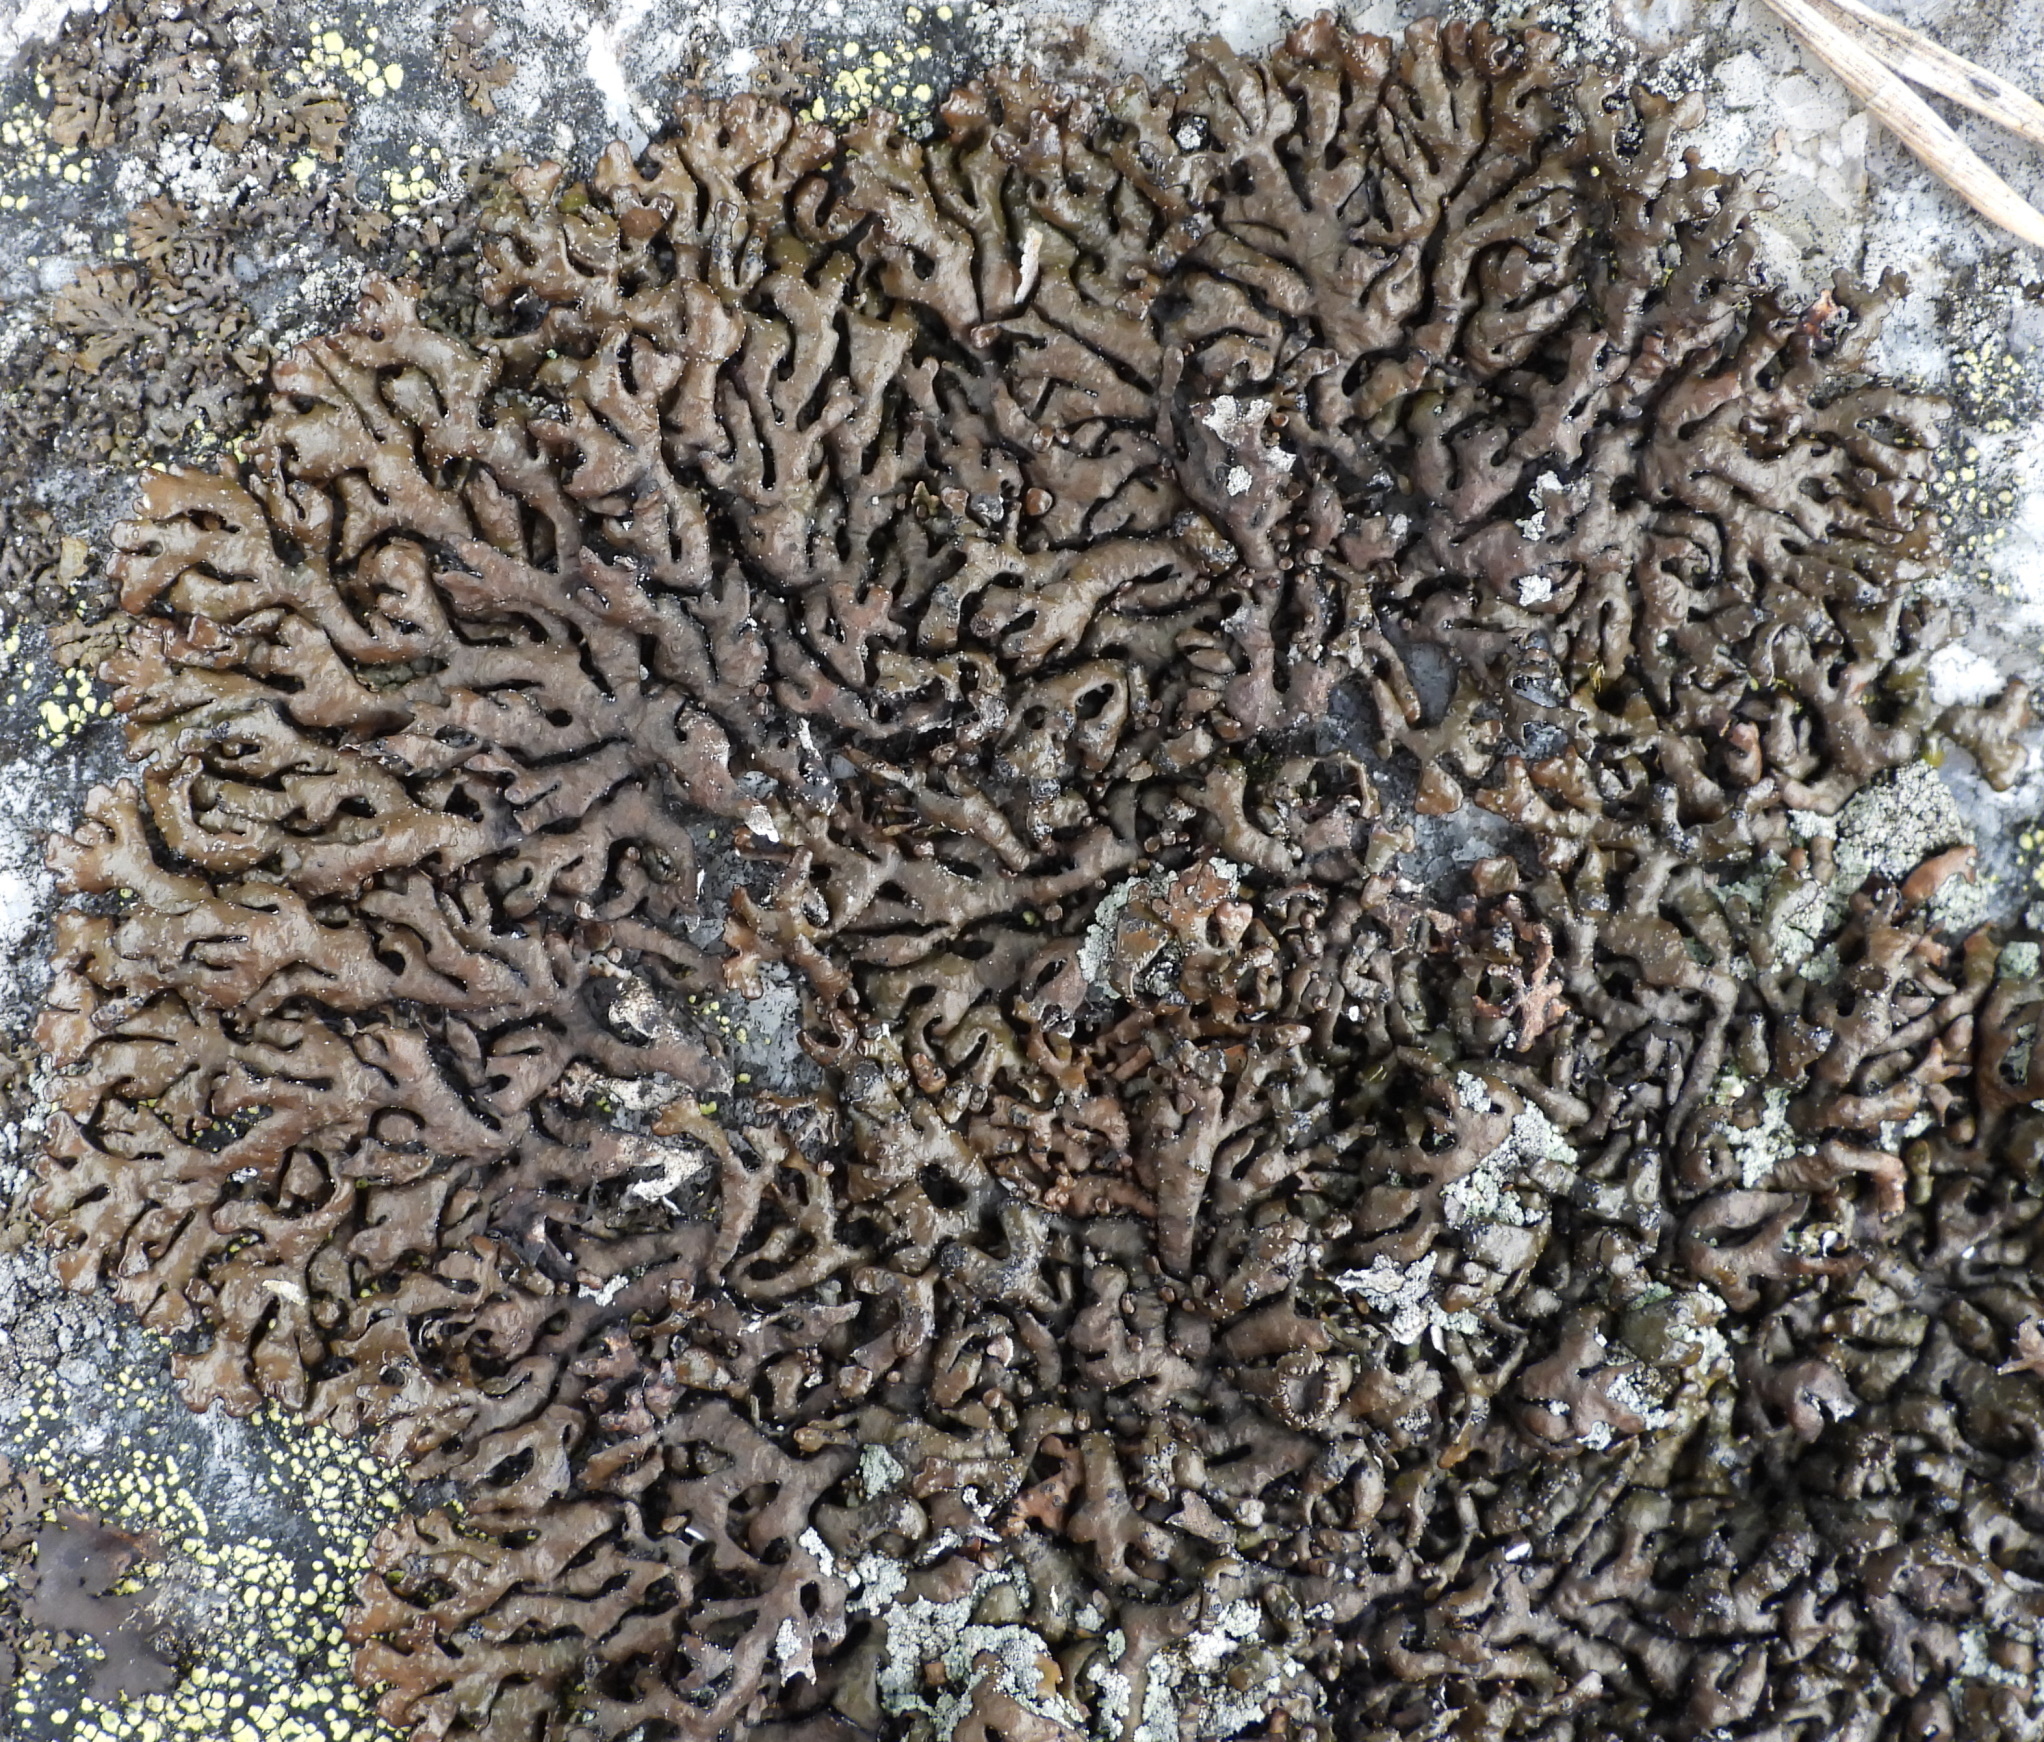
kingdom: Fungi
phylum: Ascomycota
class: Lecanoromycetes
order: Lecanorales
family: Parmeliaceae
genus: Melanelia
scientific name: Melanelia stygia
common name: Alpine camouflage lichen
